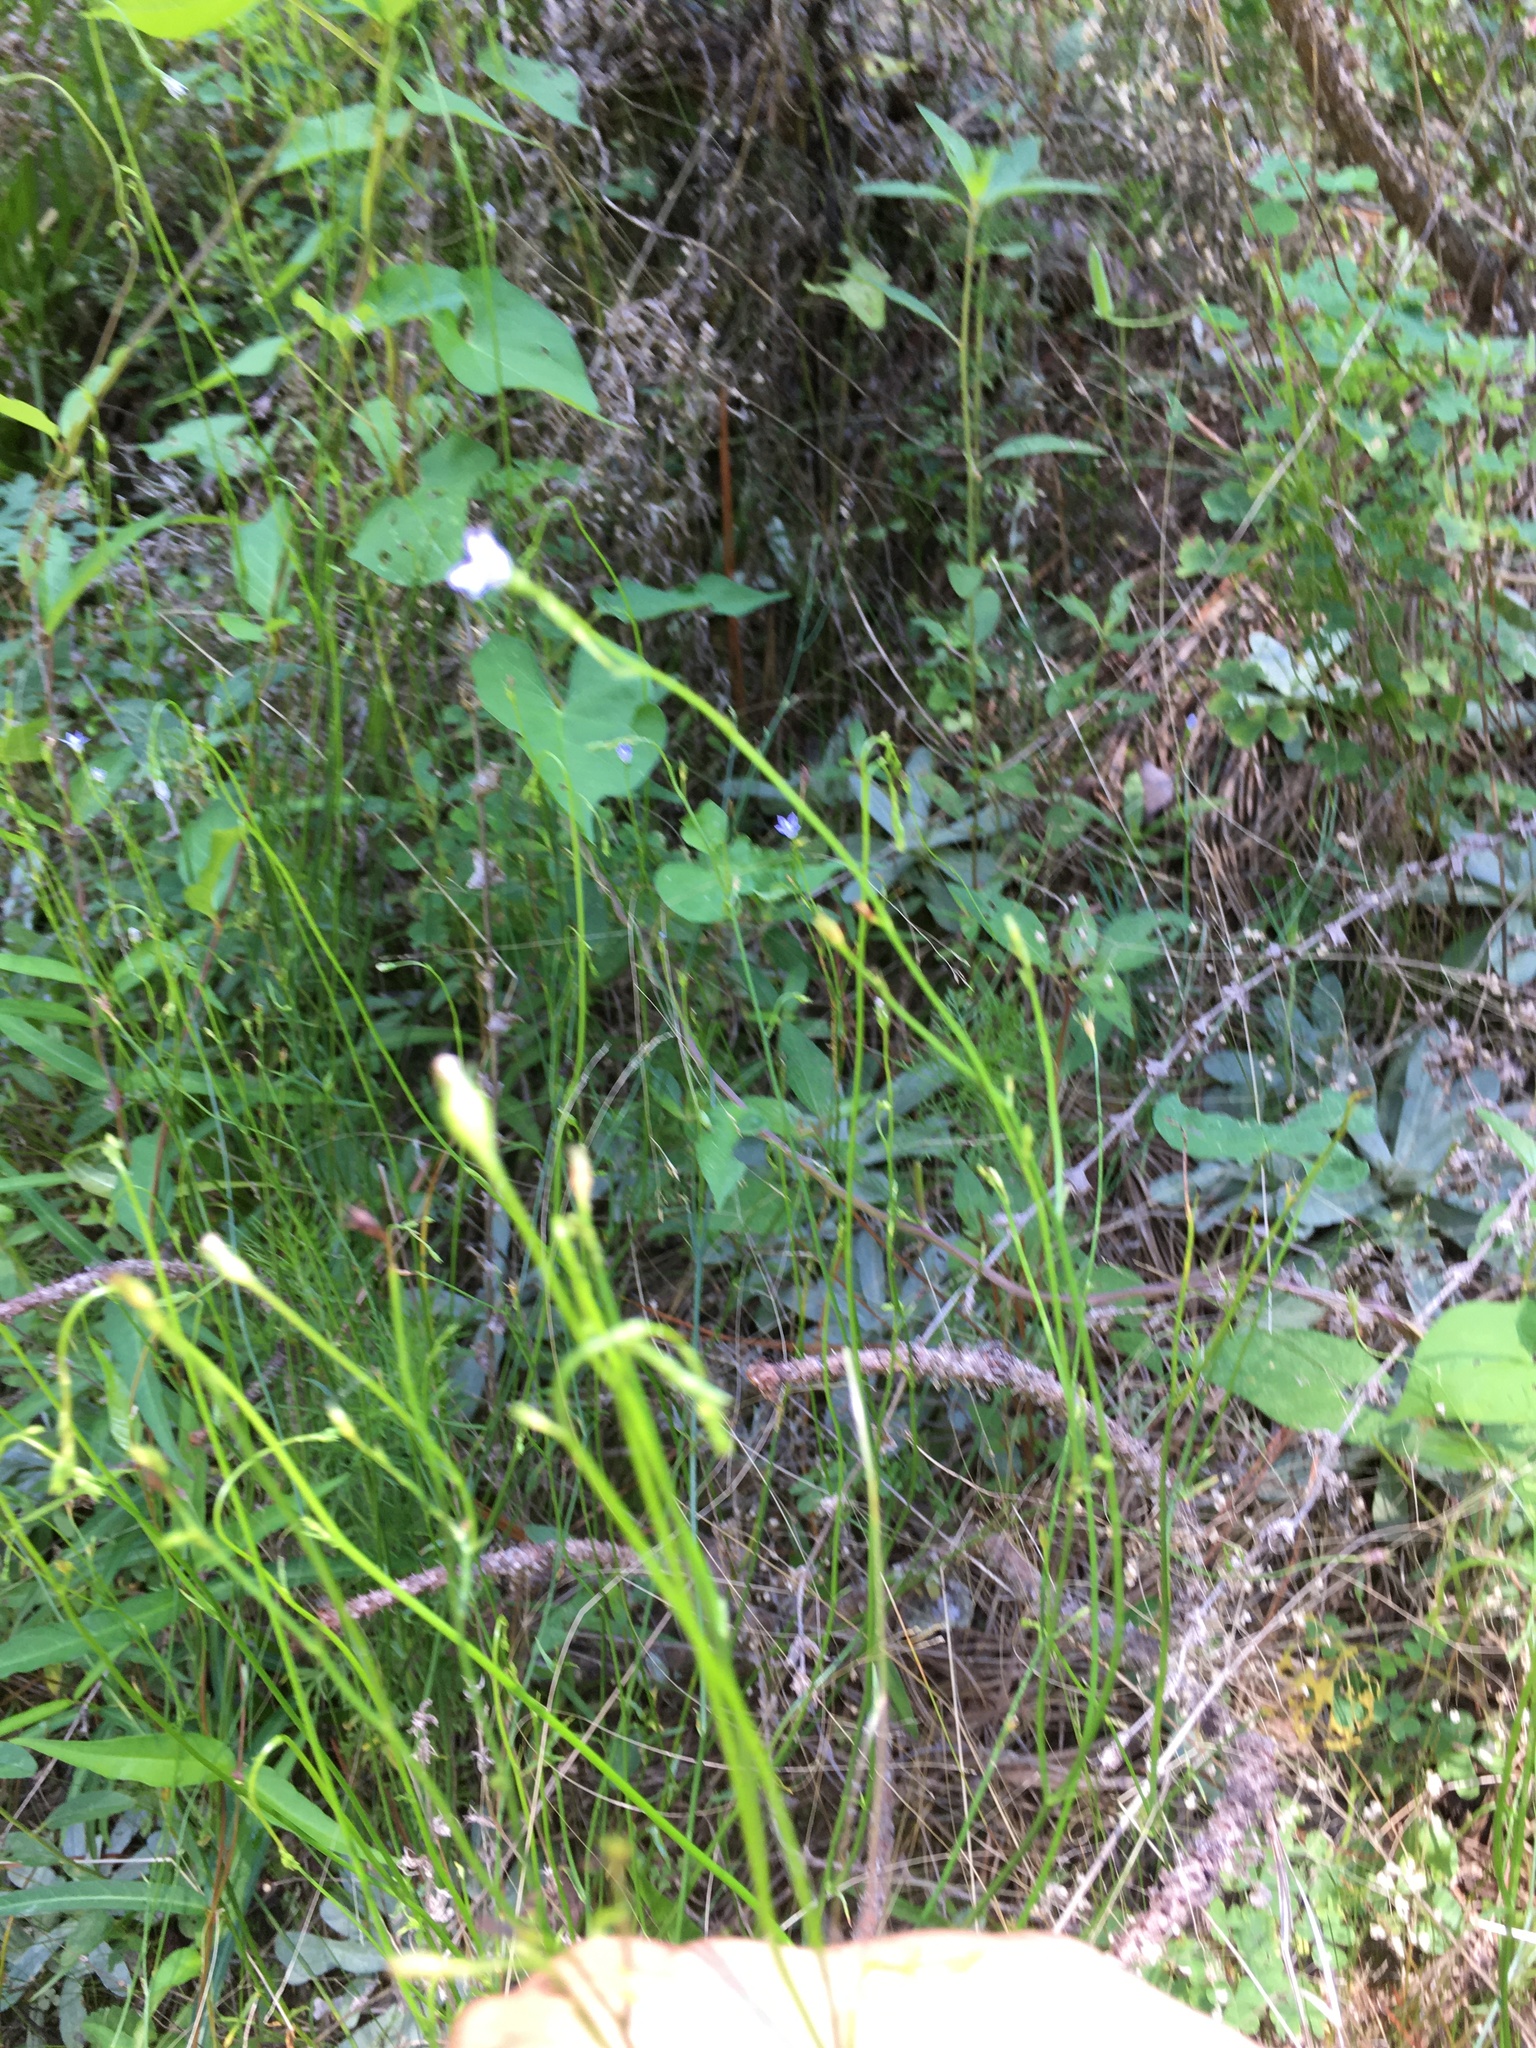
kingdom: Plantae
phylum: Tracheophyta
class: Magnoliopsida
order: Asterales
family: Campanulaceae
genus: Wahlenbergia
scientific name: Wahlenbergia marginata
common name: Southern rockbell
